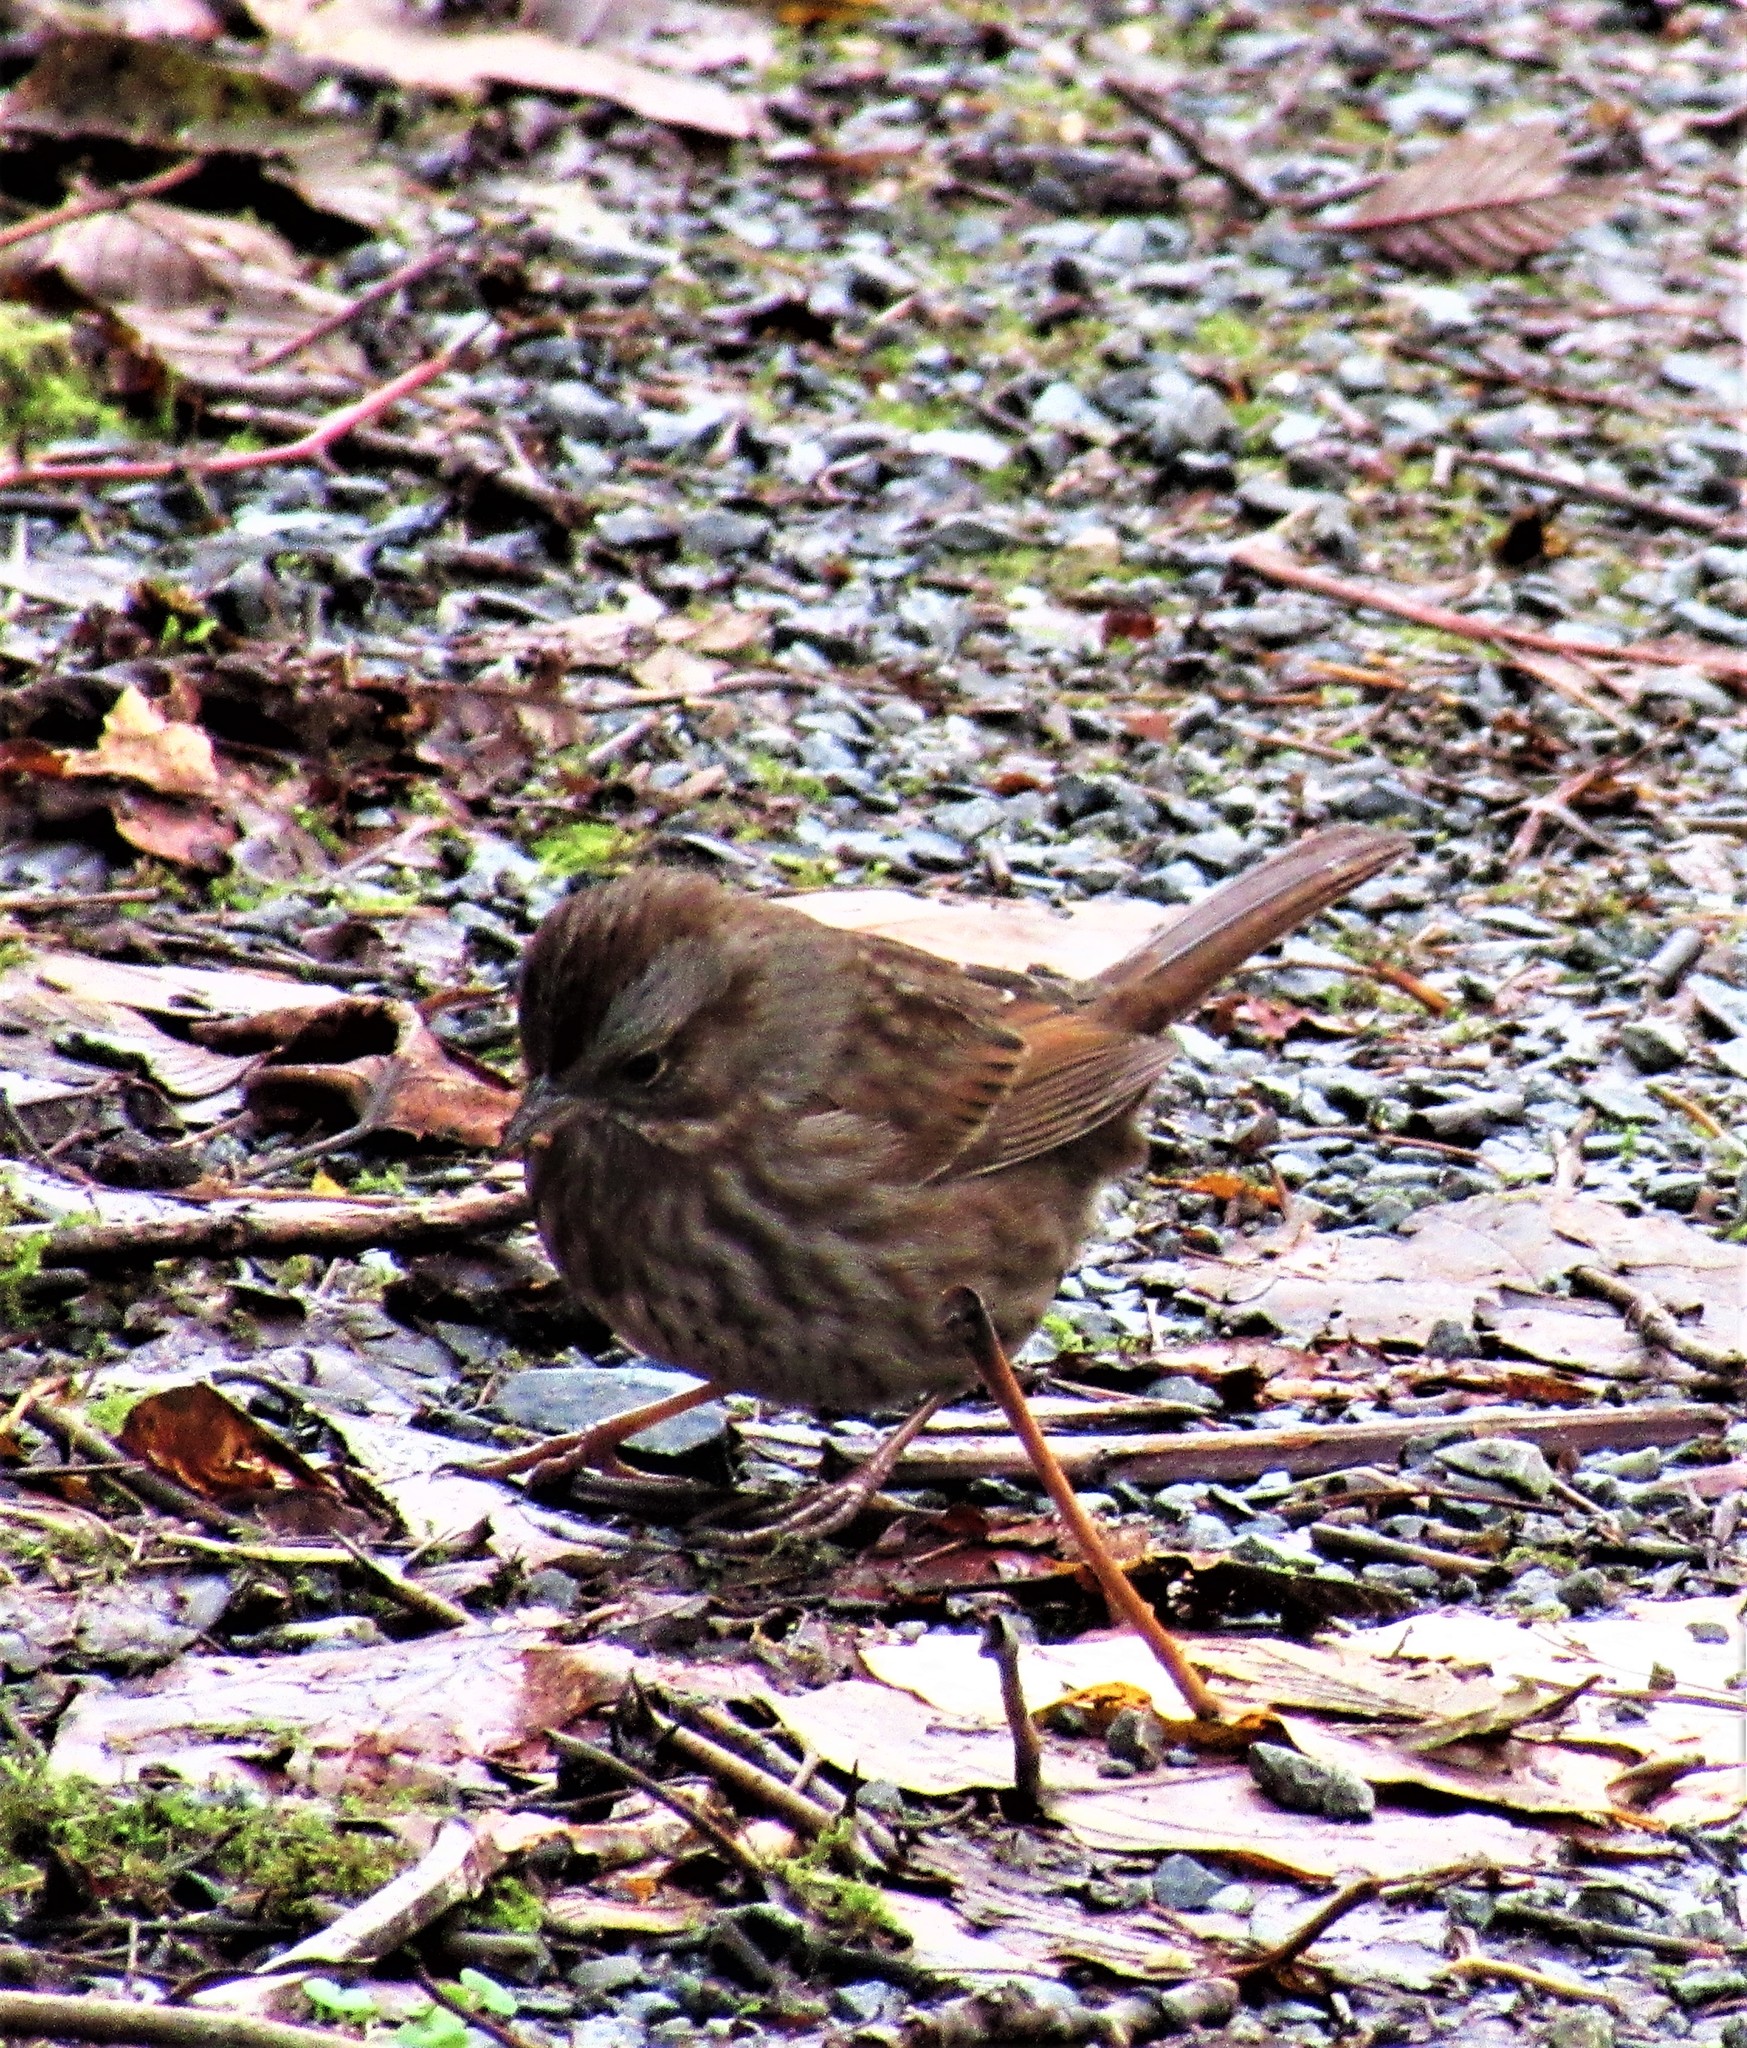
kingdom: Animalia
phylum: Chordata
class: Aves
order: Passeriformes
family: Passerellidae
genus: Melospiza
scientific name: Melospiza melodia
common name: Song sparrow
